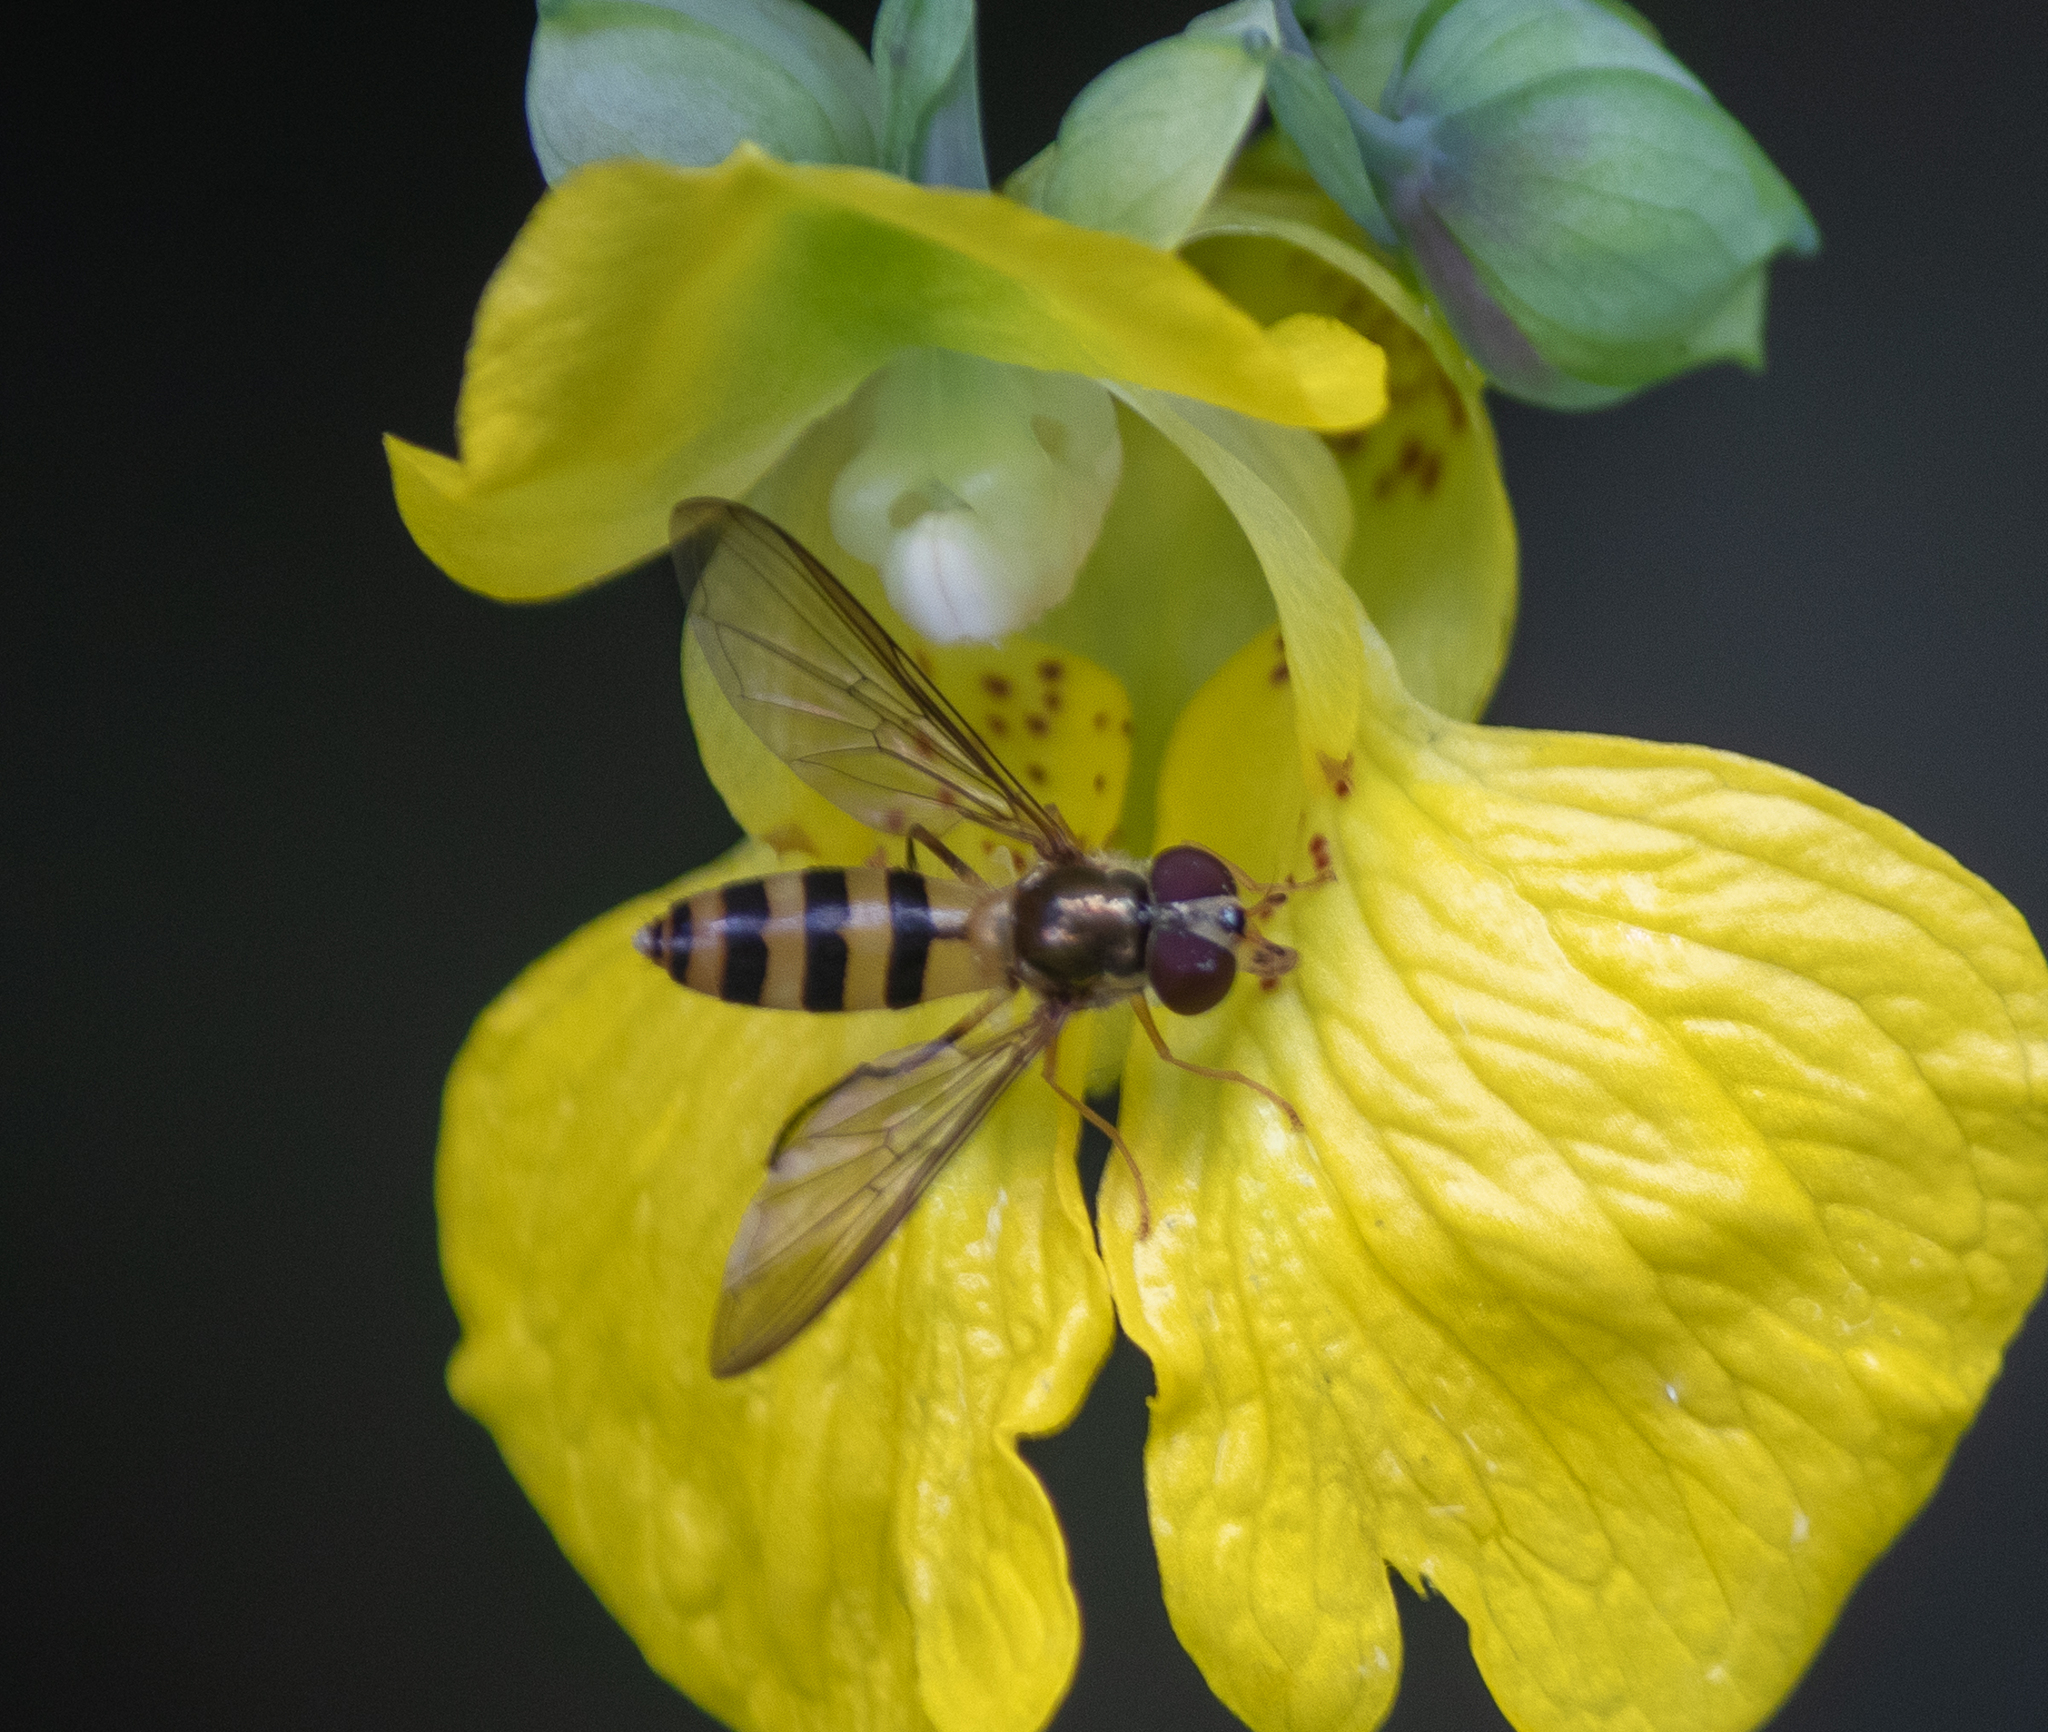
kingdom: Animalia
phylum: Arthropoda
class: Insecta
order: Diptera
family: Syrphidae
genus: Meliscaeva
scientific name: Meliscaeva cinctella
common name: American thintail fly
